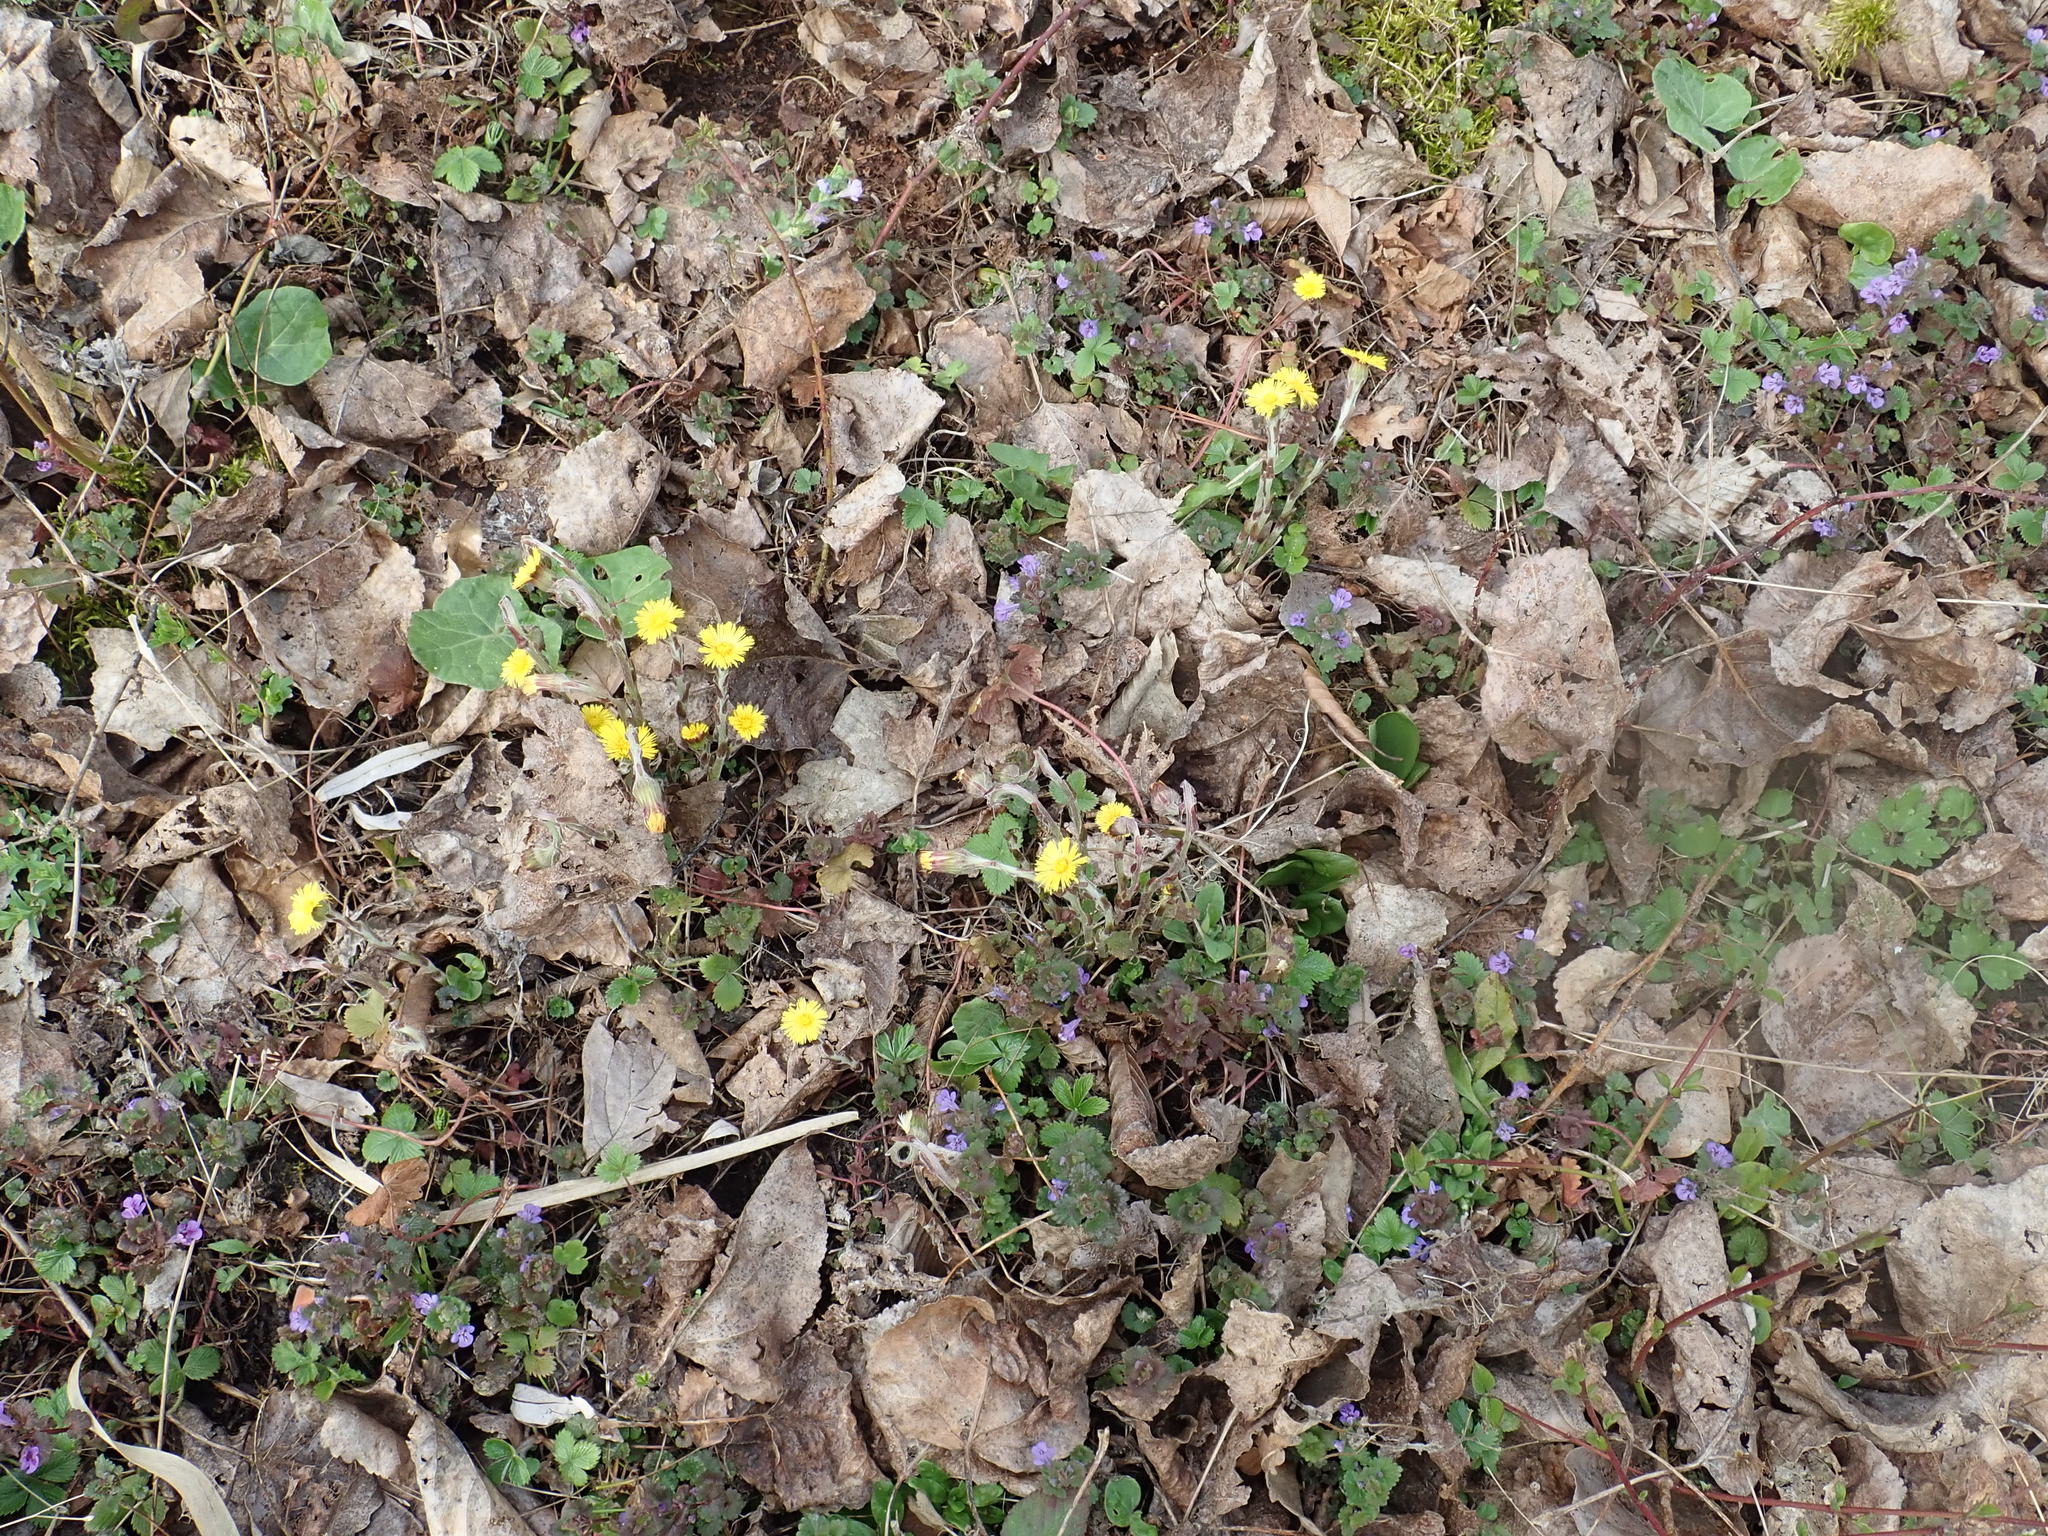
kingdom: Plantae
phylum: Tracheophyta
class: Magnoliopsida
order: Asterales
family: Asteraceae
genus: Tussilago
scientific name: Tussilago farfara
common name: Coltsfoot
